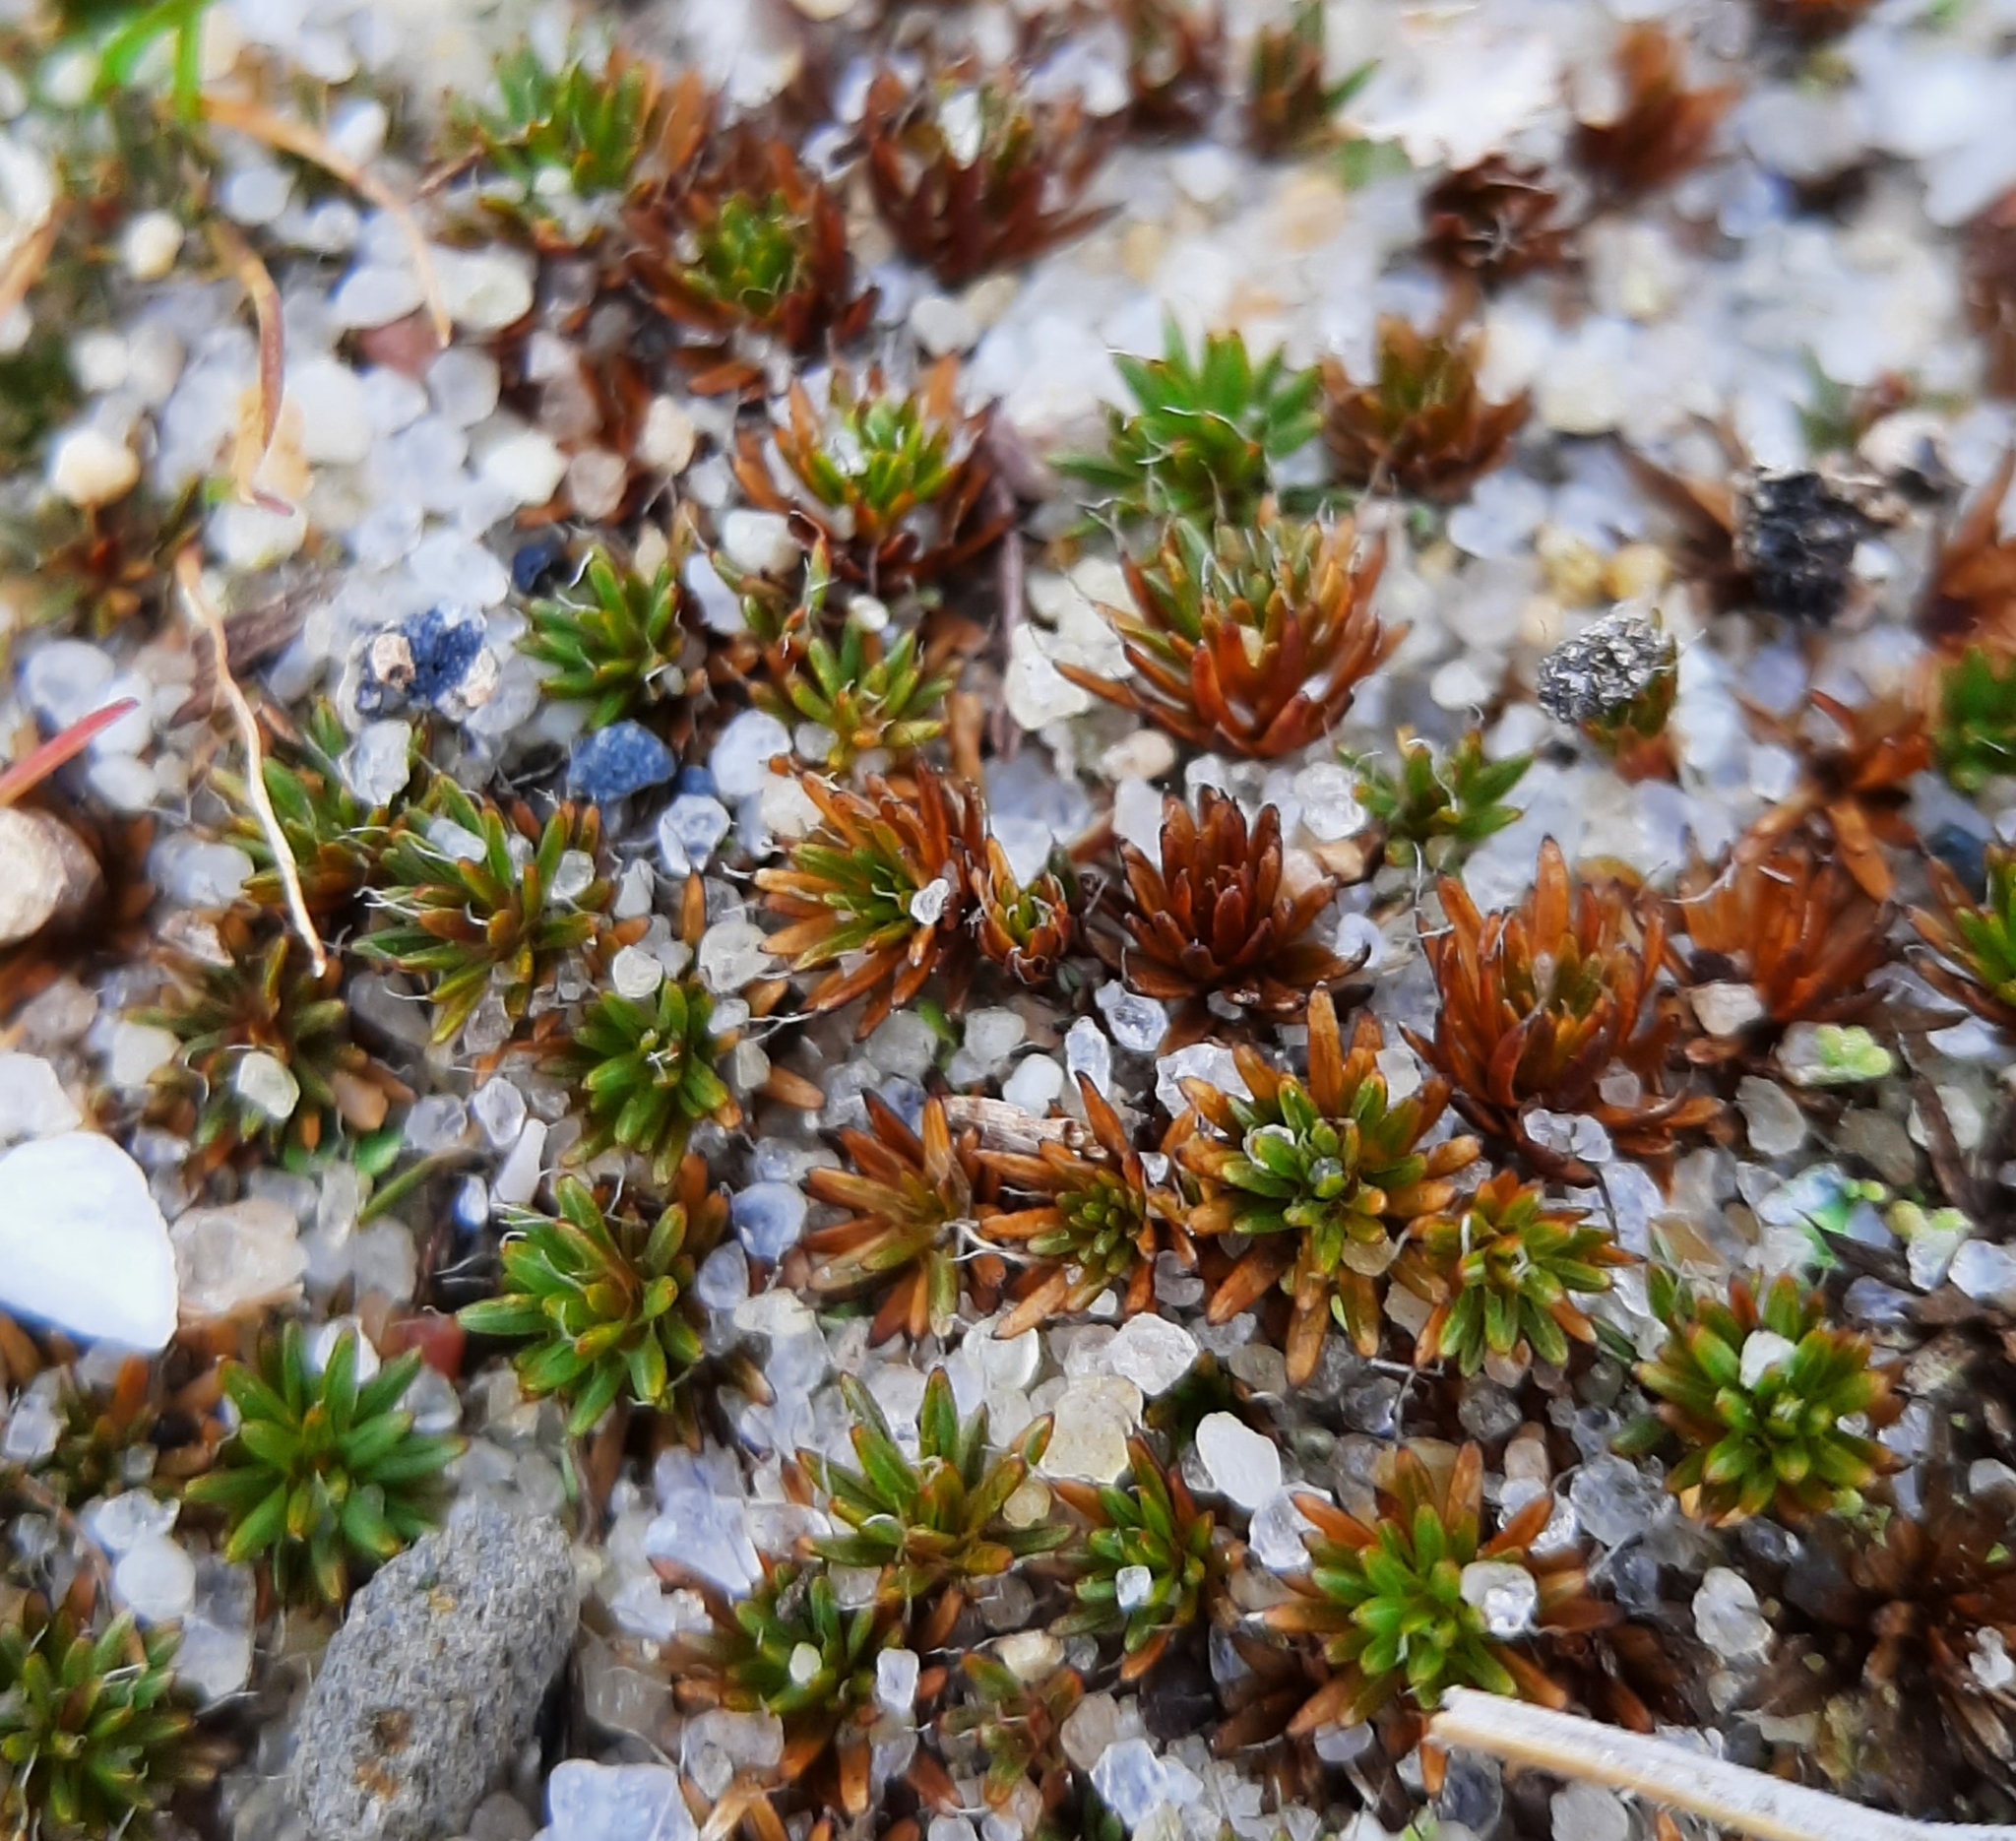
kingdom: Plantae
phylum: Bryophyta
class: Polytrichopsida
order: Polytrichales
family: Polytrichaceae
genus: Polytrichum
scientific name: Polytrichum piliferum
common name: Bristly haircap
